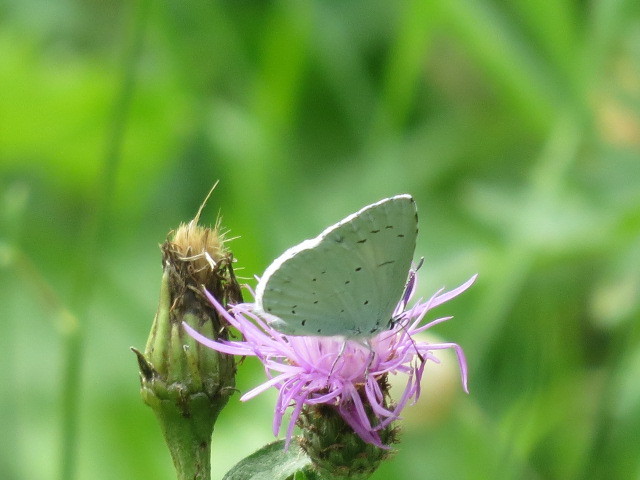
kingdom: Animalia
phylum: Arthropoda
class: Insecta
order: Lepidoptera
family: Lycaenidae
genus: Celastrina
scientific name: Celastrina argiolus
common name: Holly blue
